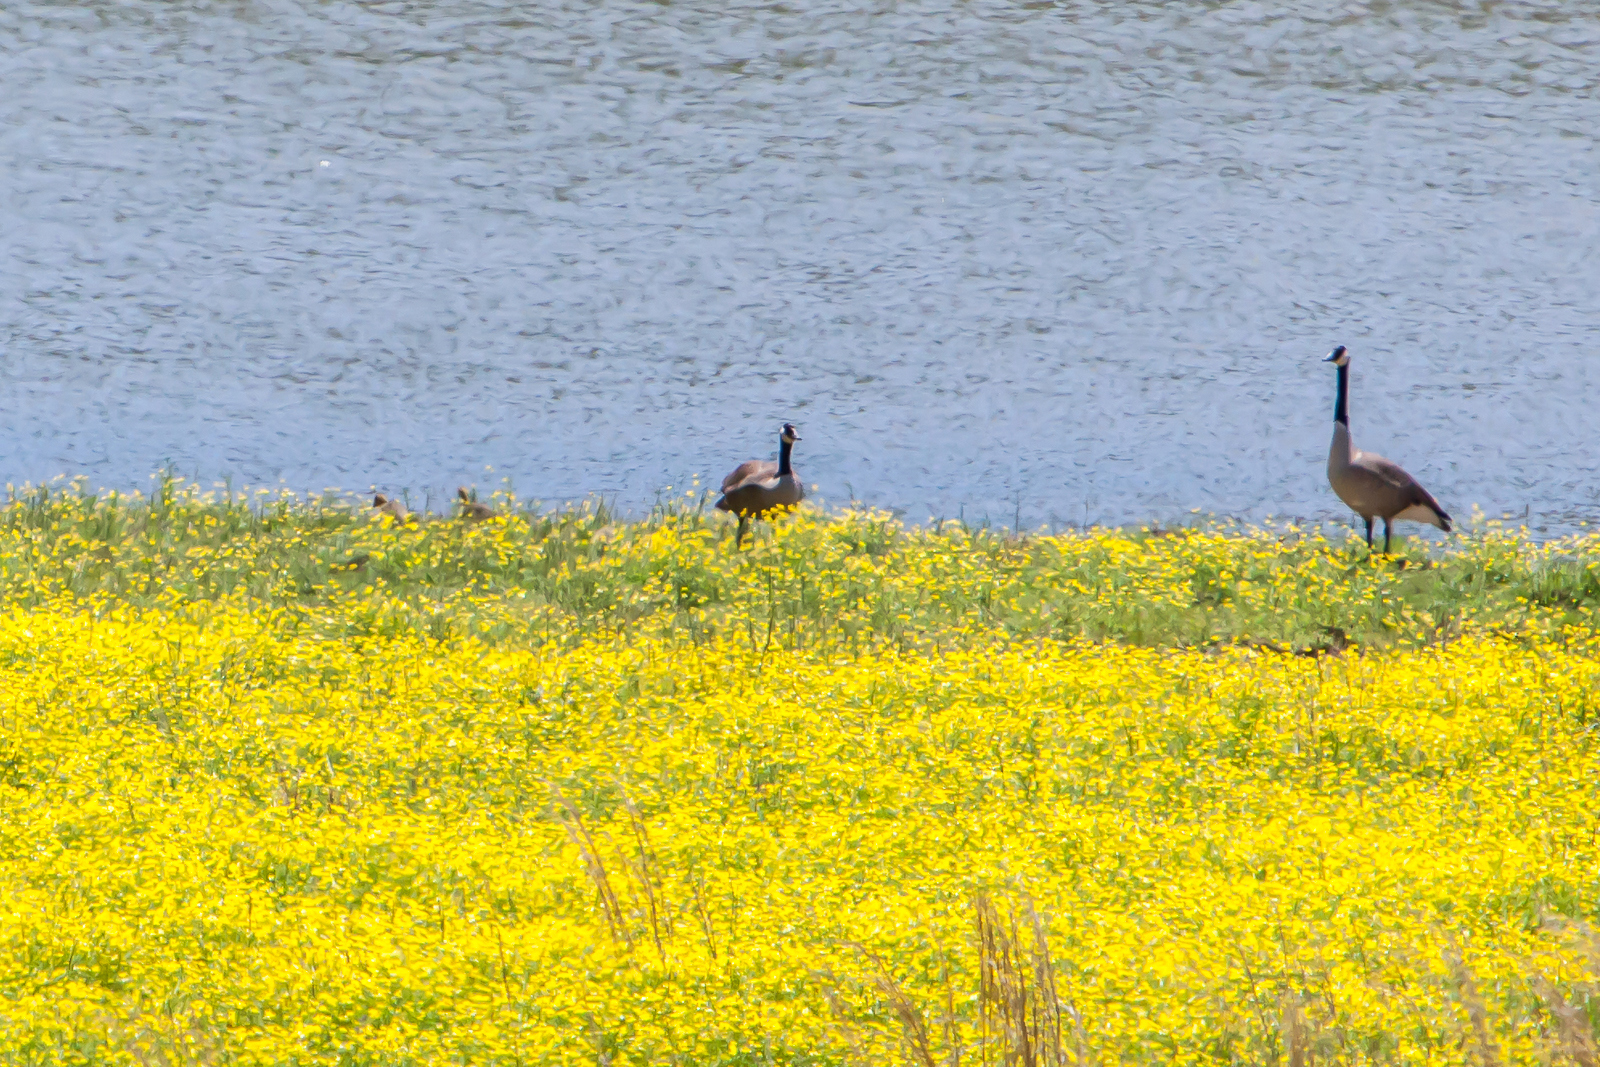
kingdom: Animalia
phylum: Chordata
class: Aves
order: Anseriformes
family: Anatidae
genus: Branta
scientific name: Branta canadensis
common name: Canada goose
